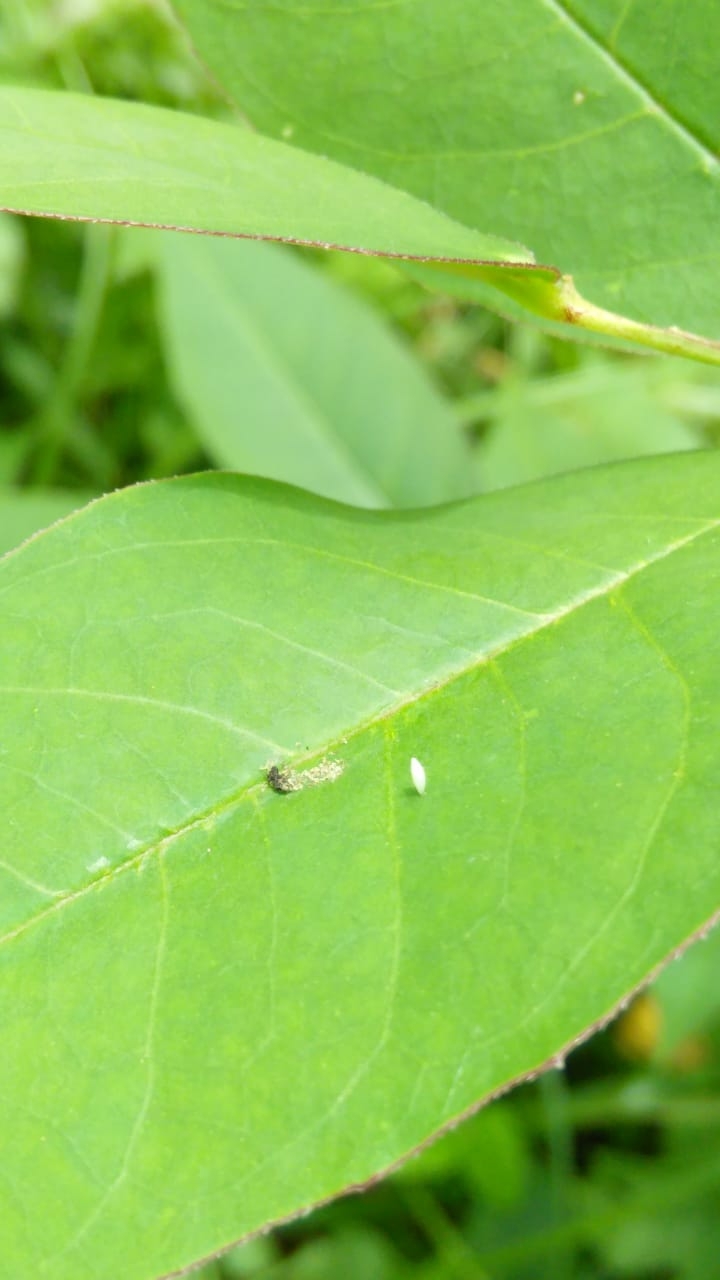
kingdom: Animalia
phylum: Arthropoda
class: Insecta
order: Lepidoptera
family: Pieridae
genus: Catopsilia
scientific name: Catopsilia pyranthe
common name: Mottled emigrant
